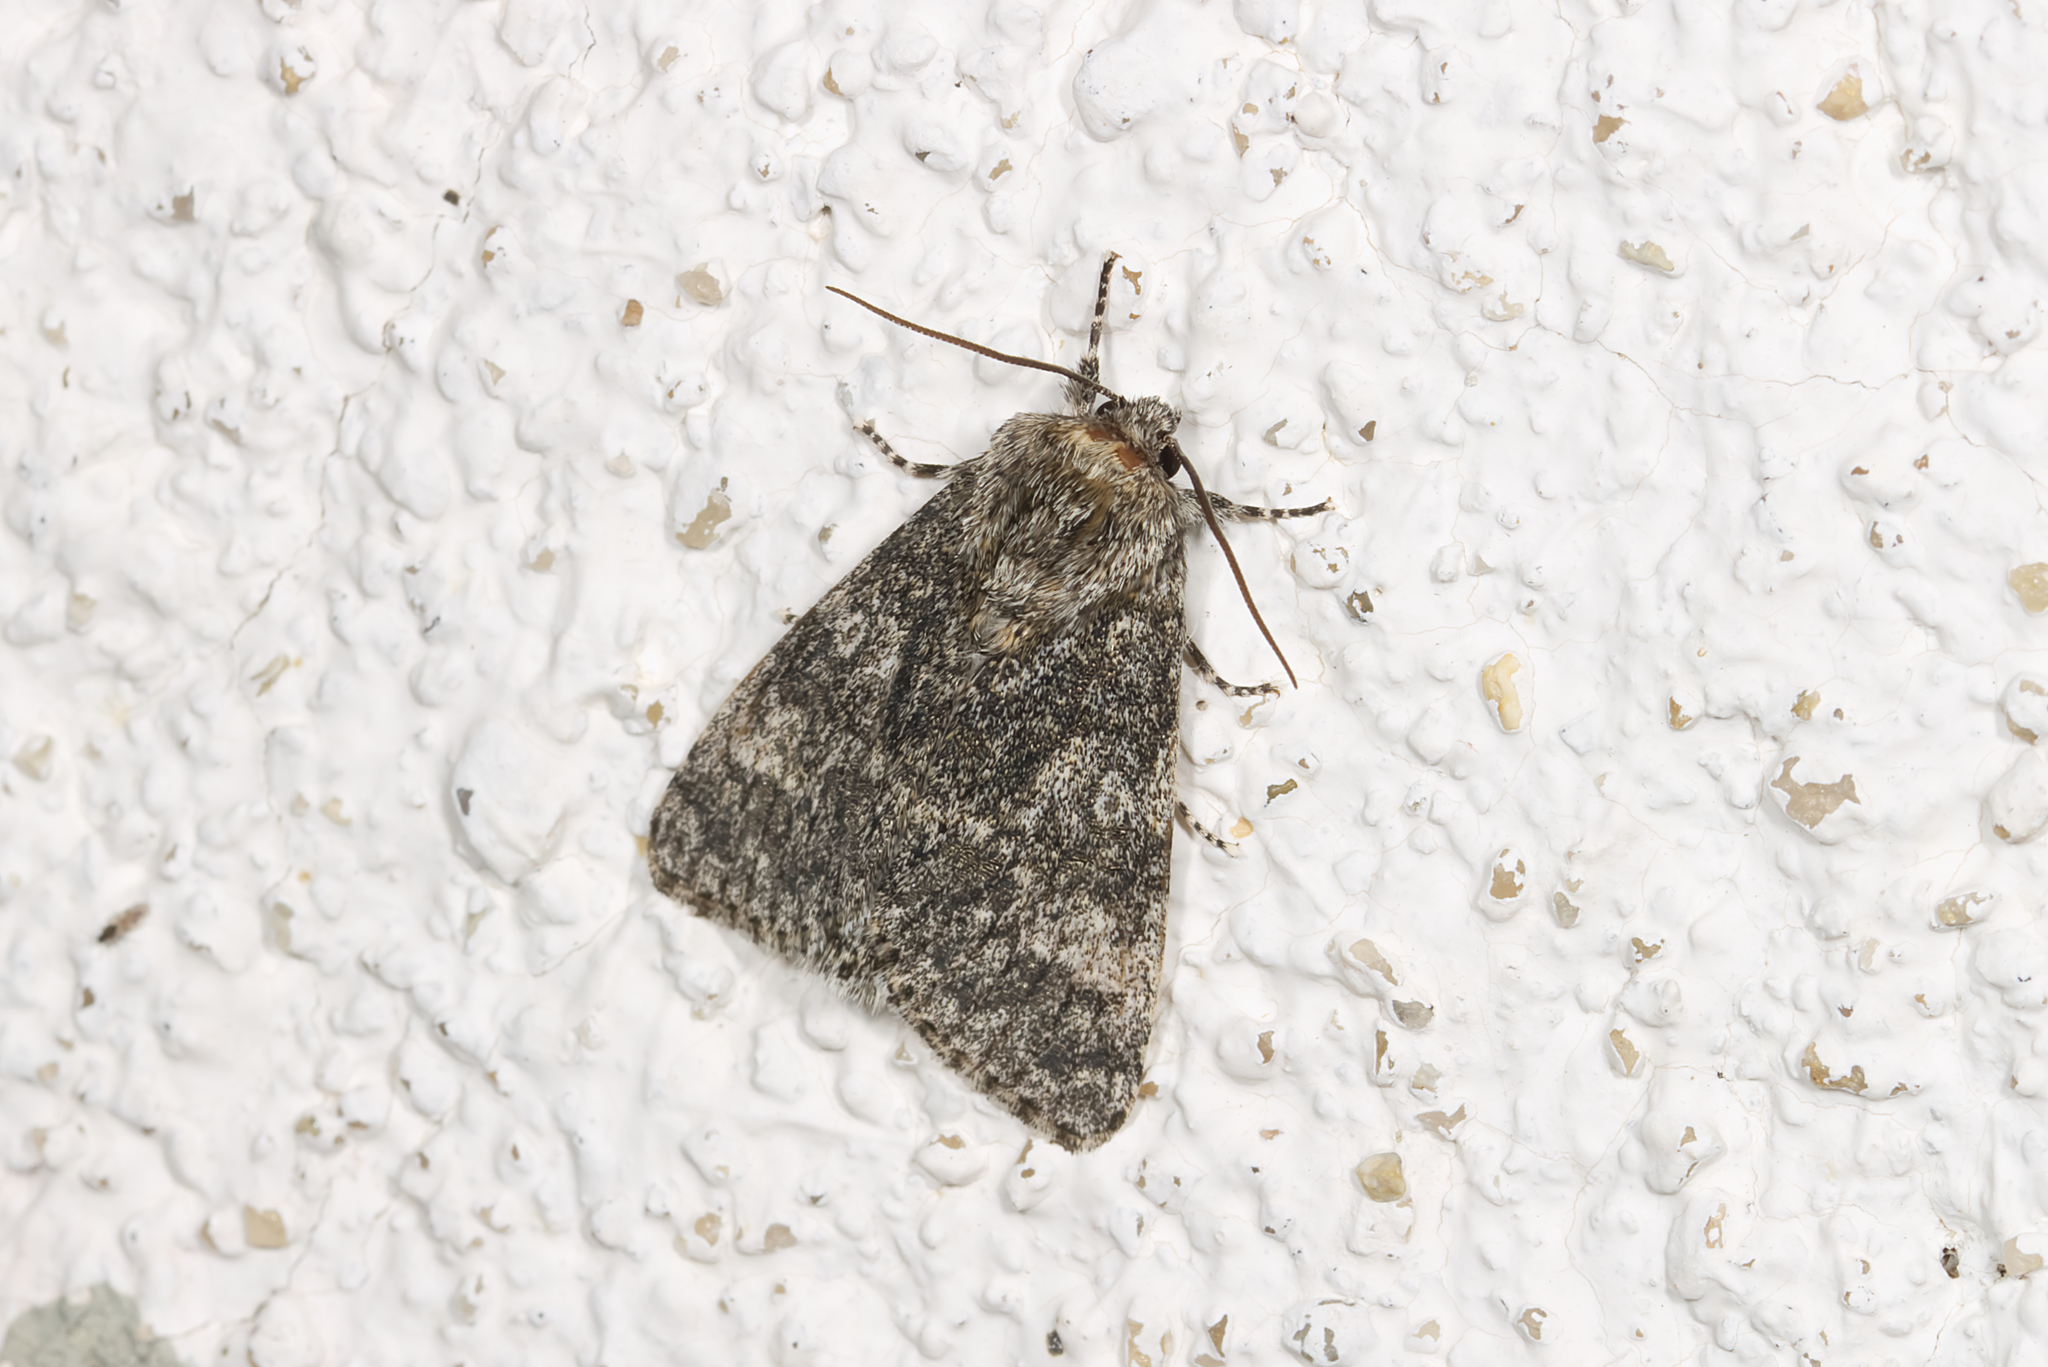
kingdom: Animalia
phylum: Arthropoda
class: Insecta
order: Lepidoptera
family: Noctuidae
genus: Acronicta
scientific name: Acronicta megacephala
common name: Poplar grey
